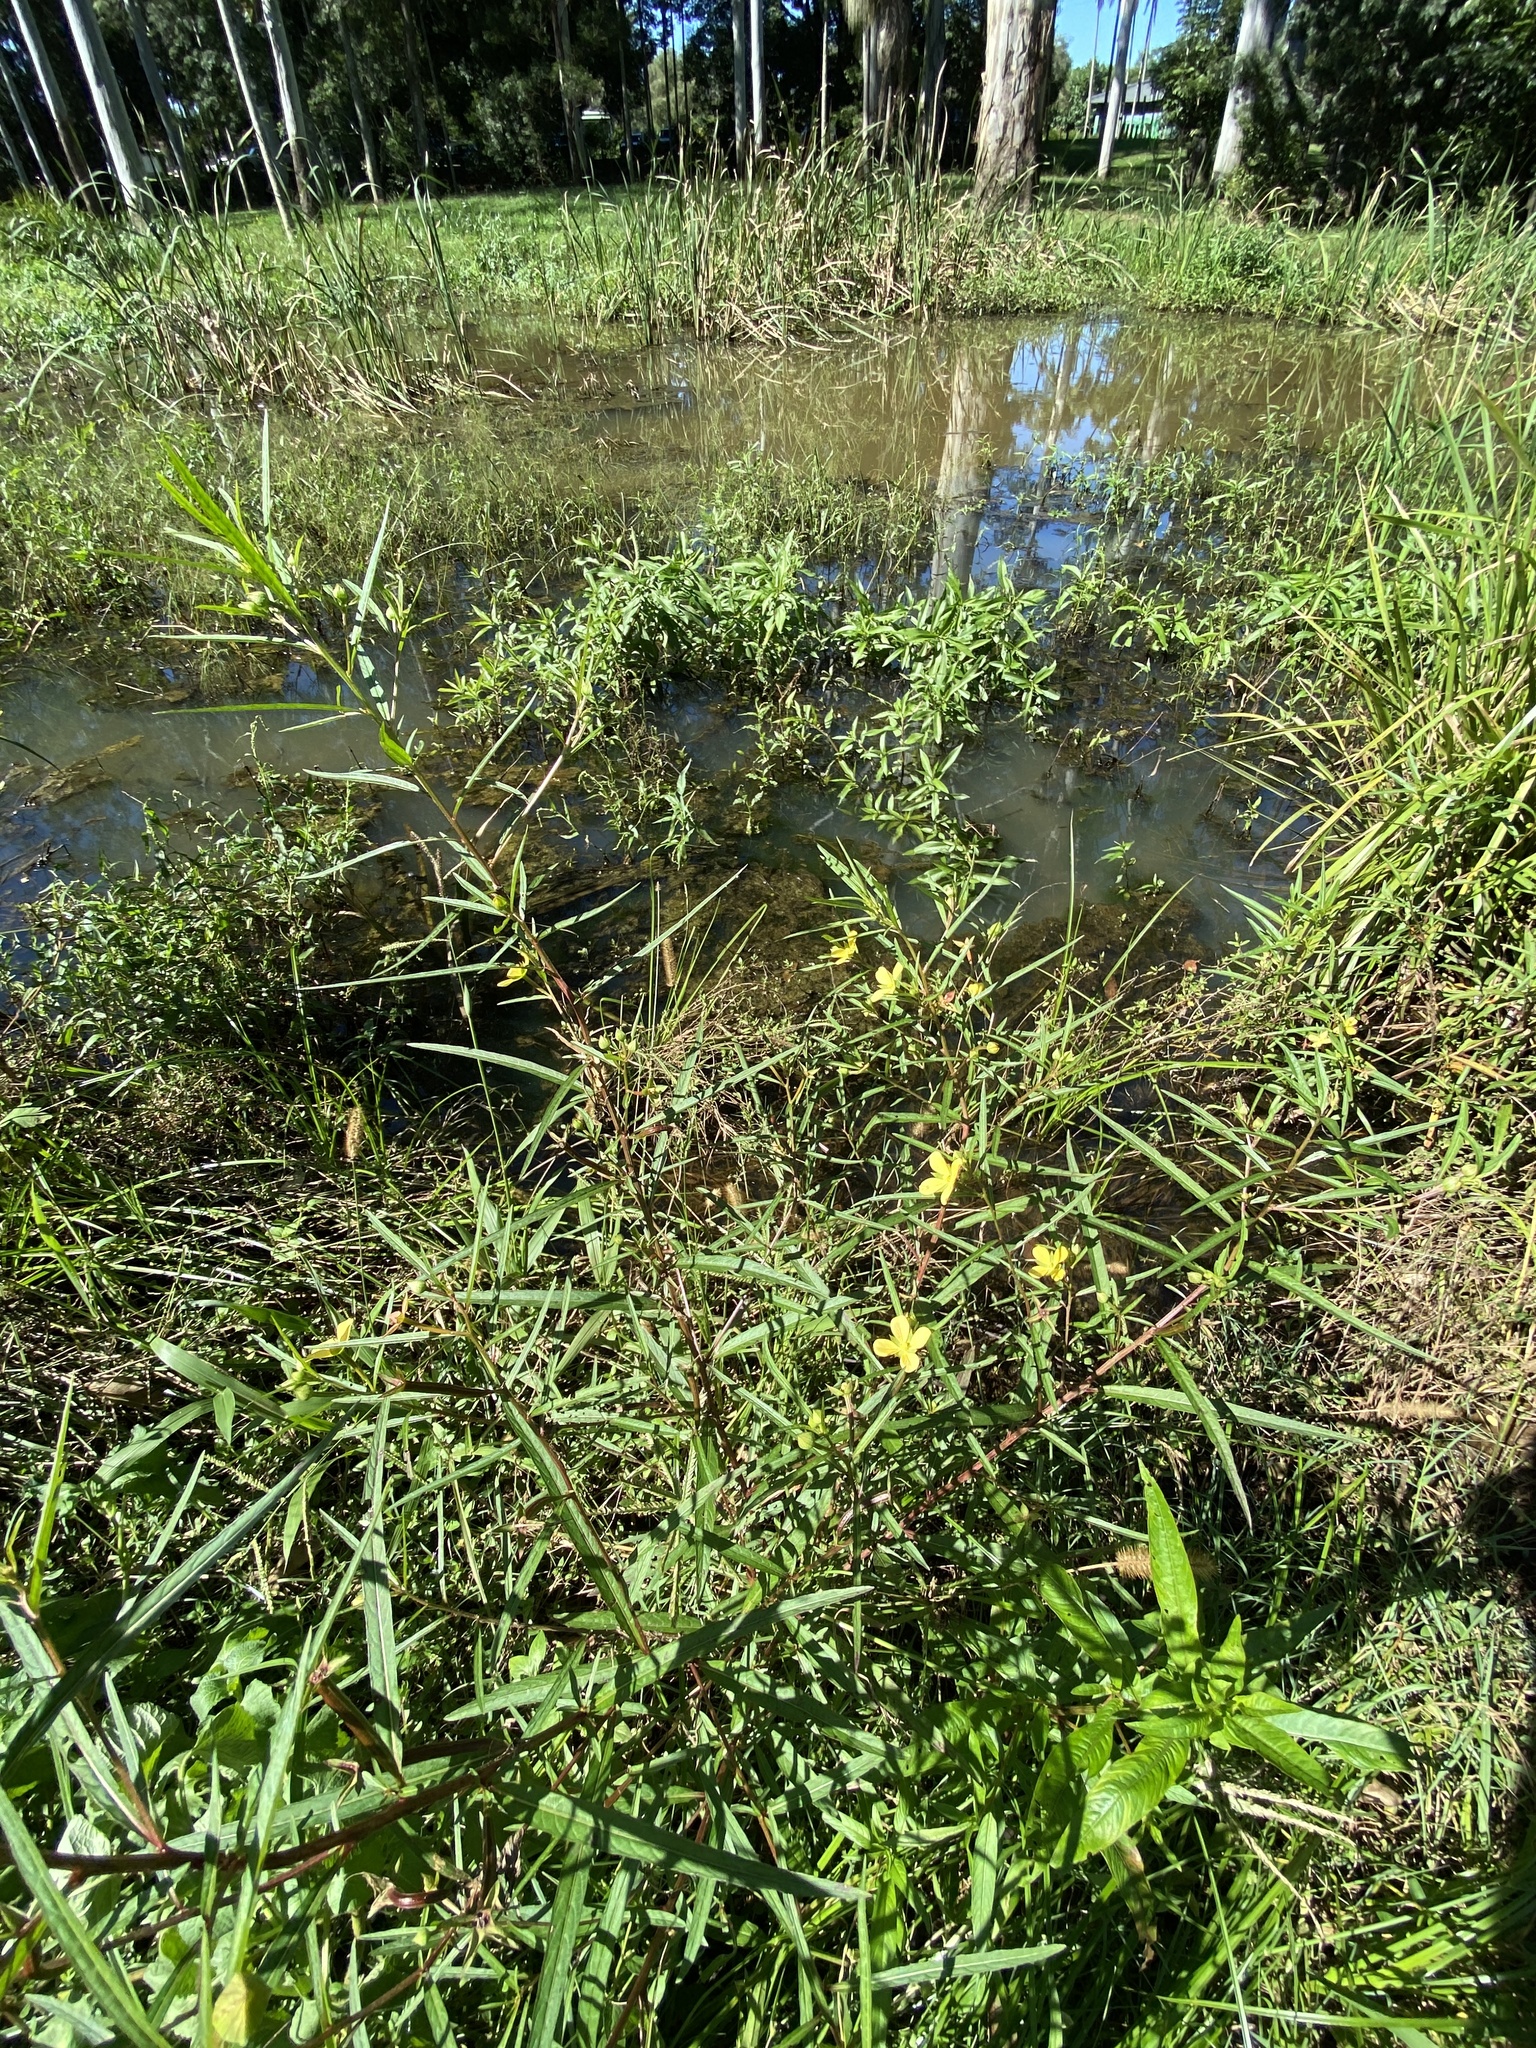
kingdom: Plantae
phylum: Tracheophyta
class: Magnoliopsida
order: Myrtales
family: Onagraceae
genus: Ludwigia
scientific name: Ludwigia octovalvis
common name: Water-primrose
